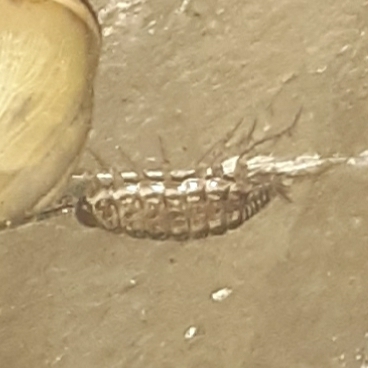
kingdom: Animalia
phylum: Arthropoda
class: Malacostraca
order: Isopoda
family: Philosciidae
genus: Philoscia
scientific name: Philoscia muscorum
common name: Common striped woodlouse
